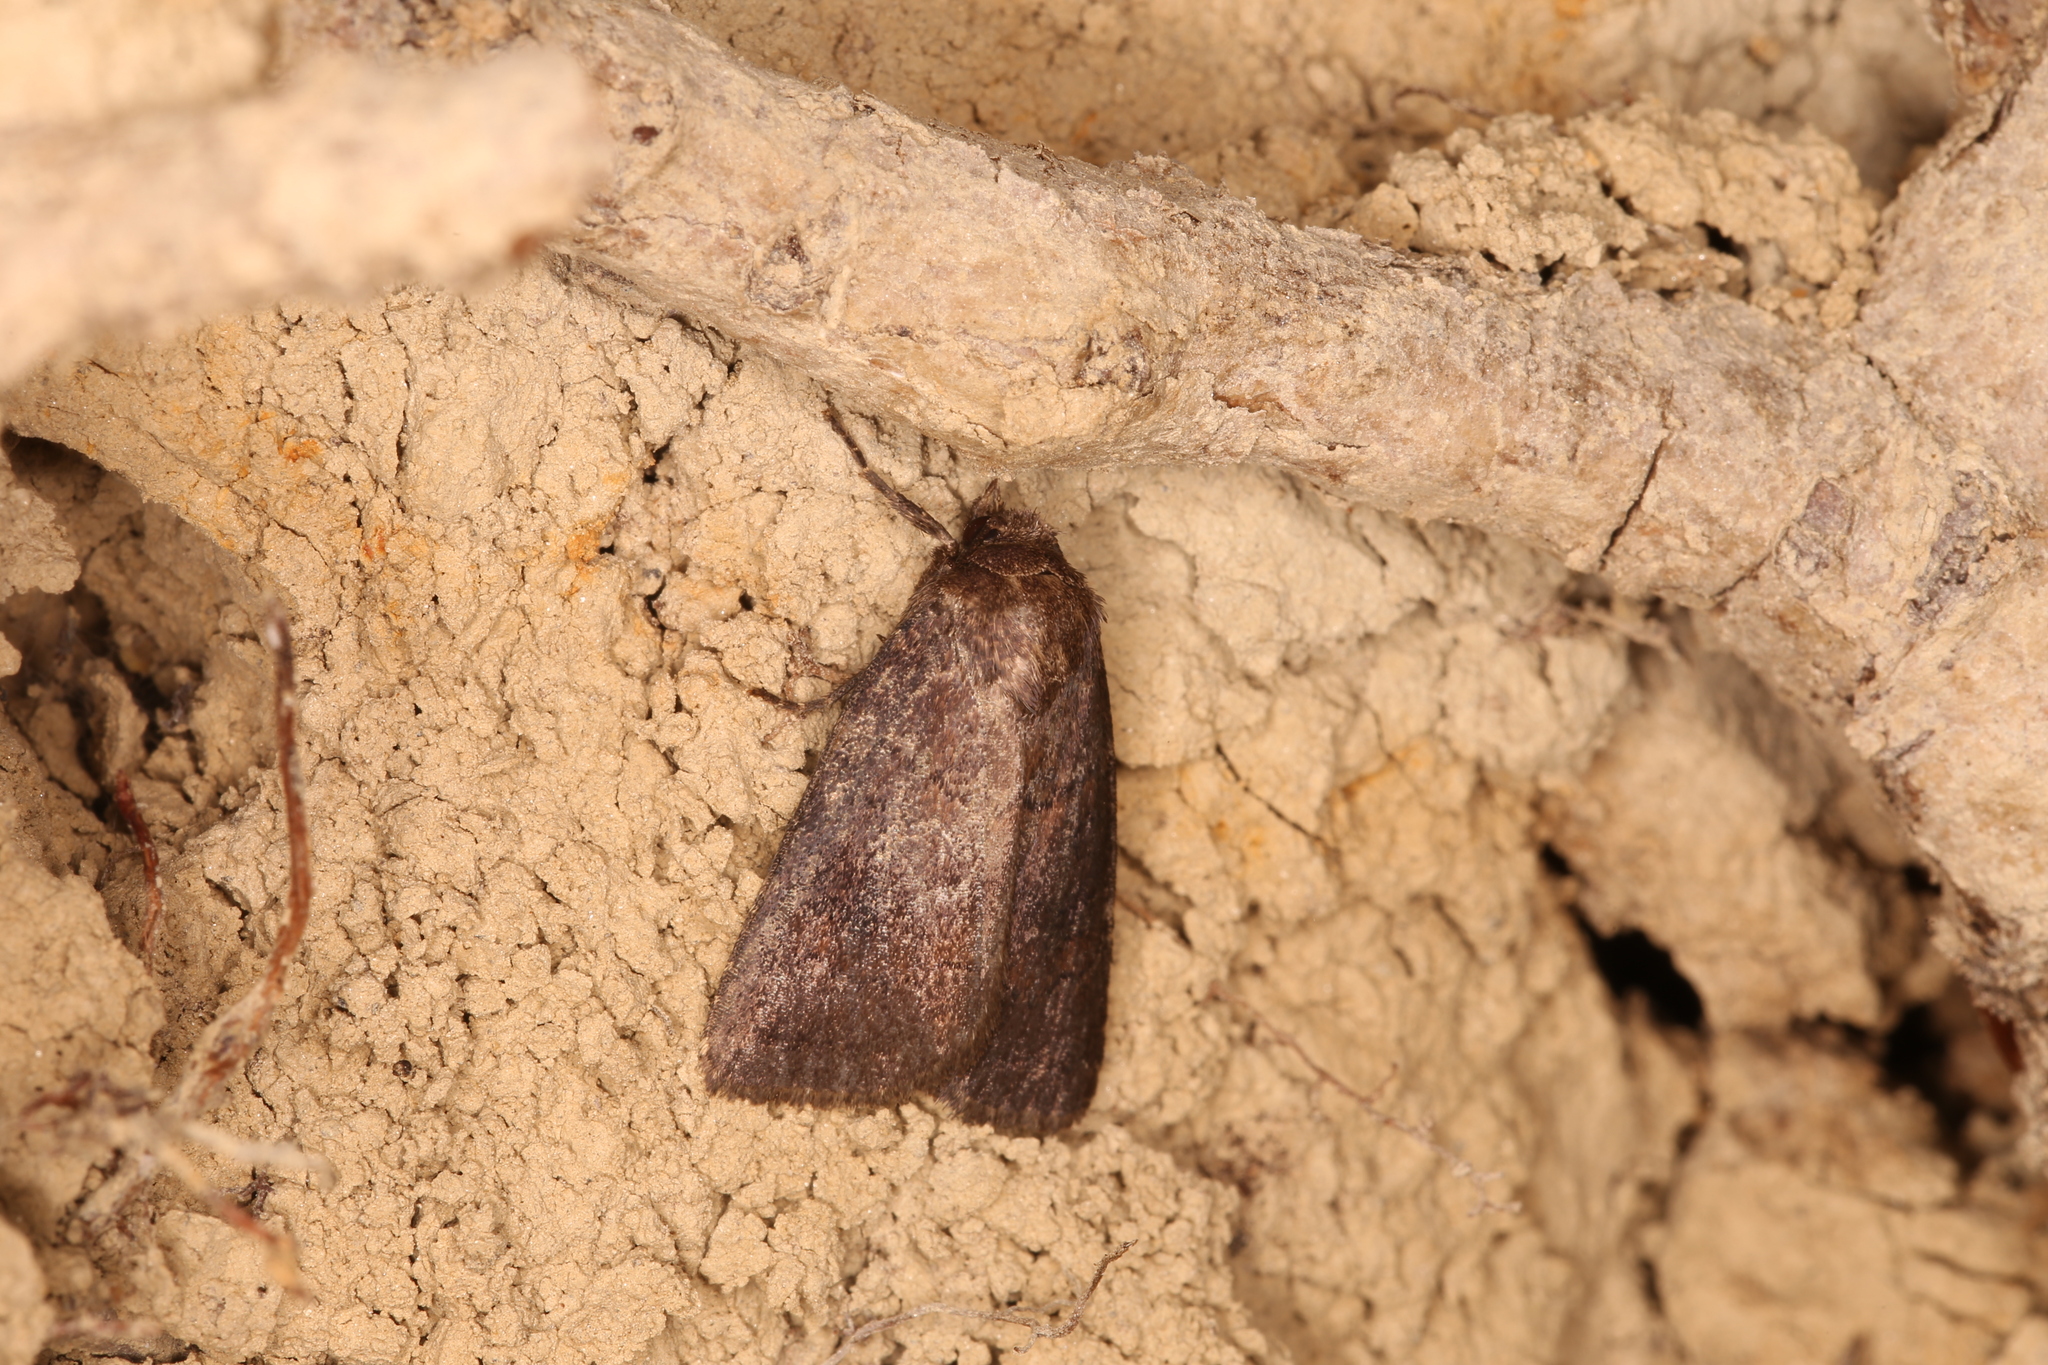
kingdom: Animalia
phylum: Arthropoda
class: Insecta
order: Lepidoptera
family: Noctuidae
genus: Charanyca
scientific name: Charanyca ferruginea
